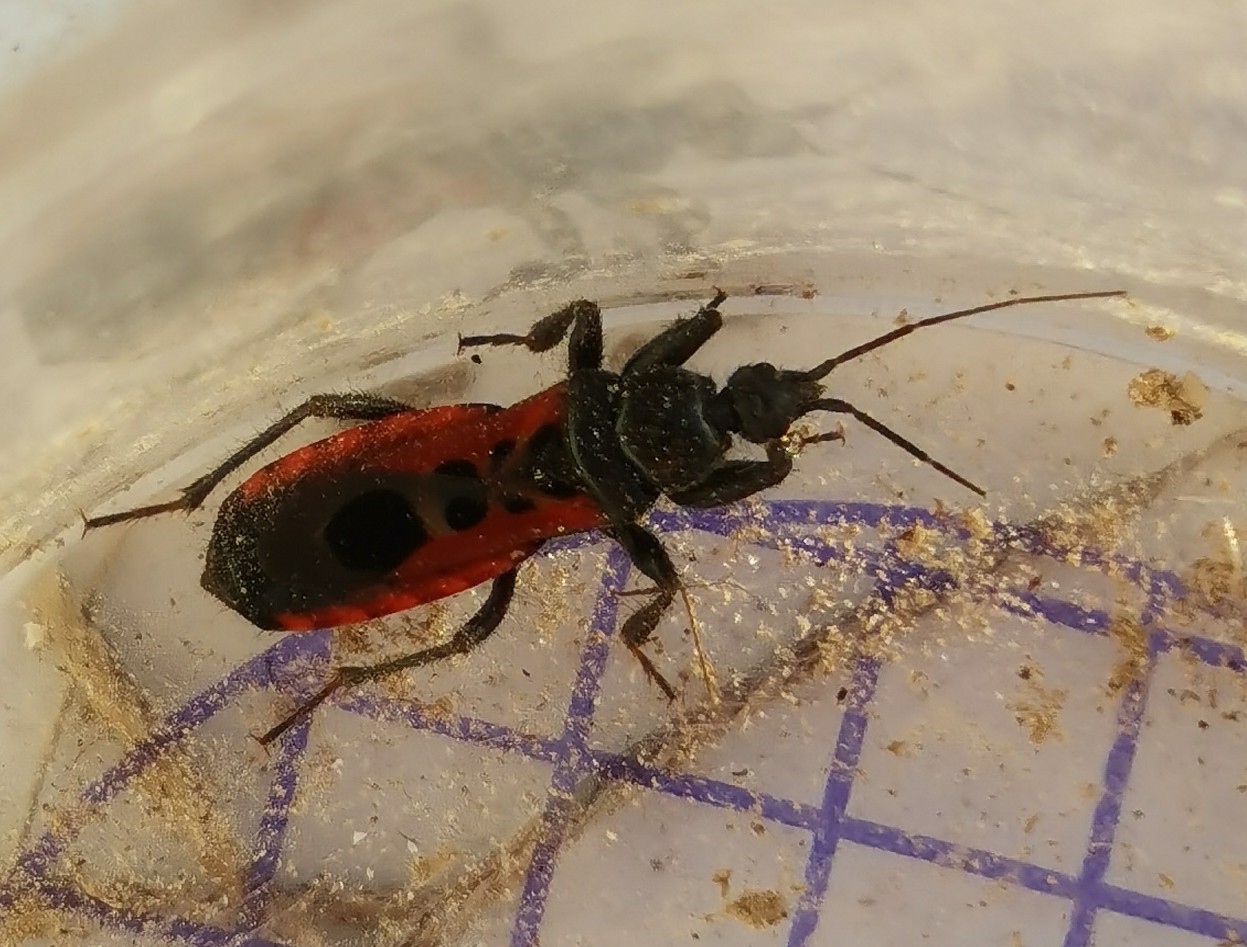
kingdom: Animalia
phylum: Arthropoda
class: Insecta
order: Hemiptera
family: Reduviidae
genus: Peirates
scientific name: Peirates stridulus
